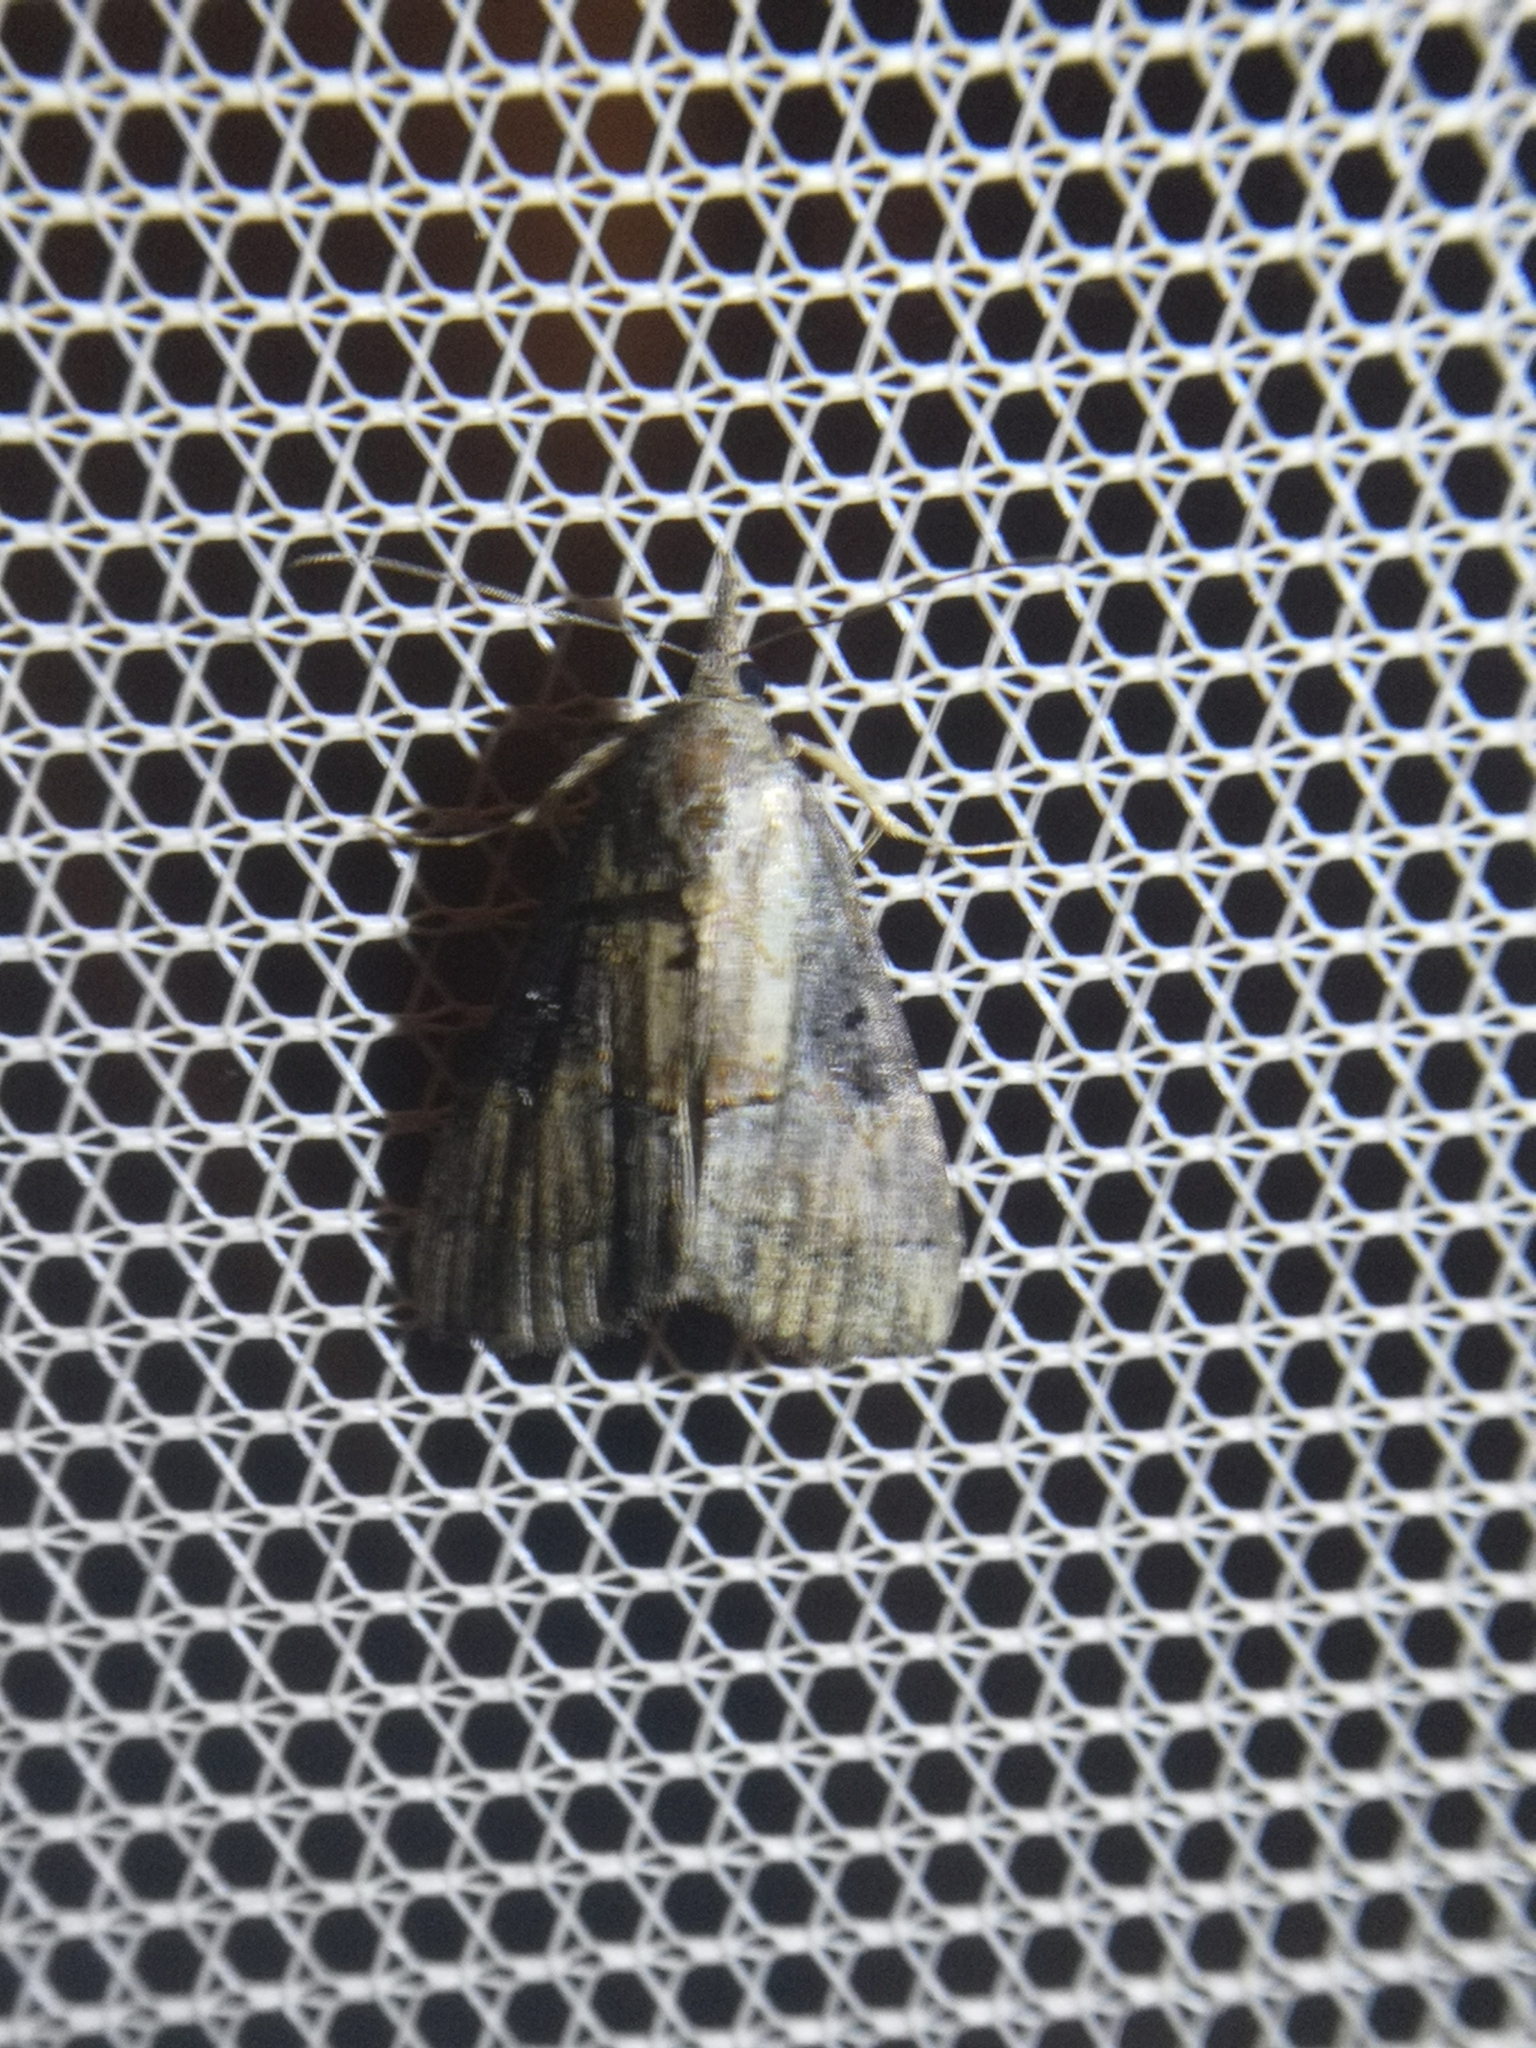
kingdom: Animalia
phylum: Arthropoda
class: Insecta
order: Lepidoptera
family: Erebidae
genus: Hypena
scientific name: Hypena scabra
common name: Green cloverworm
